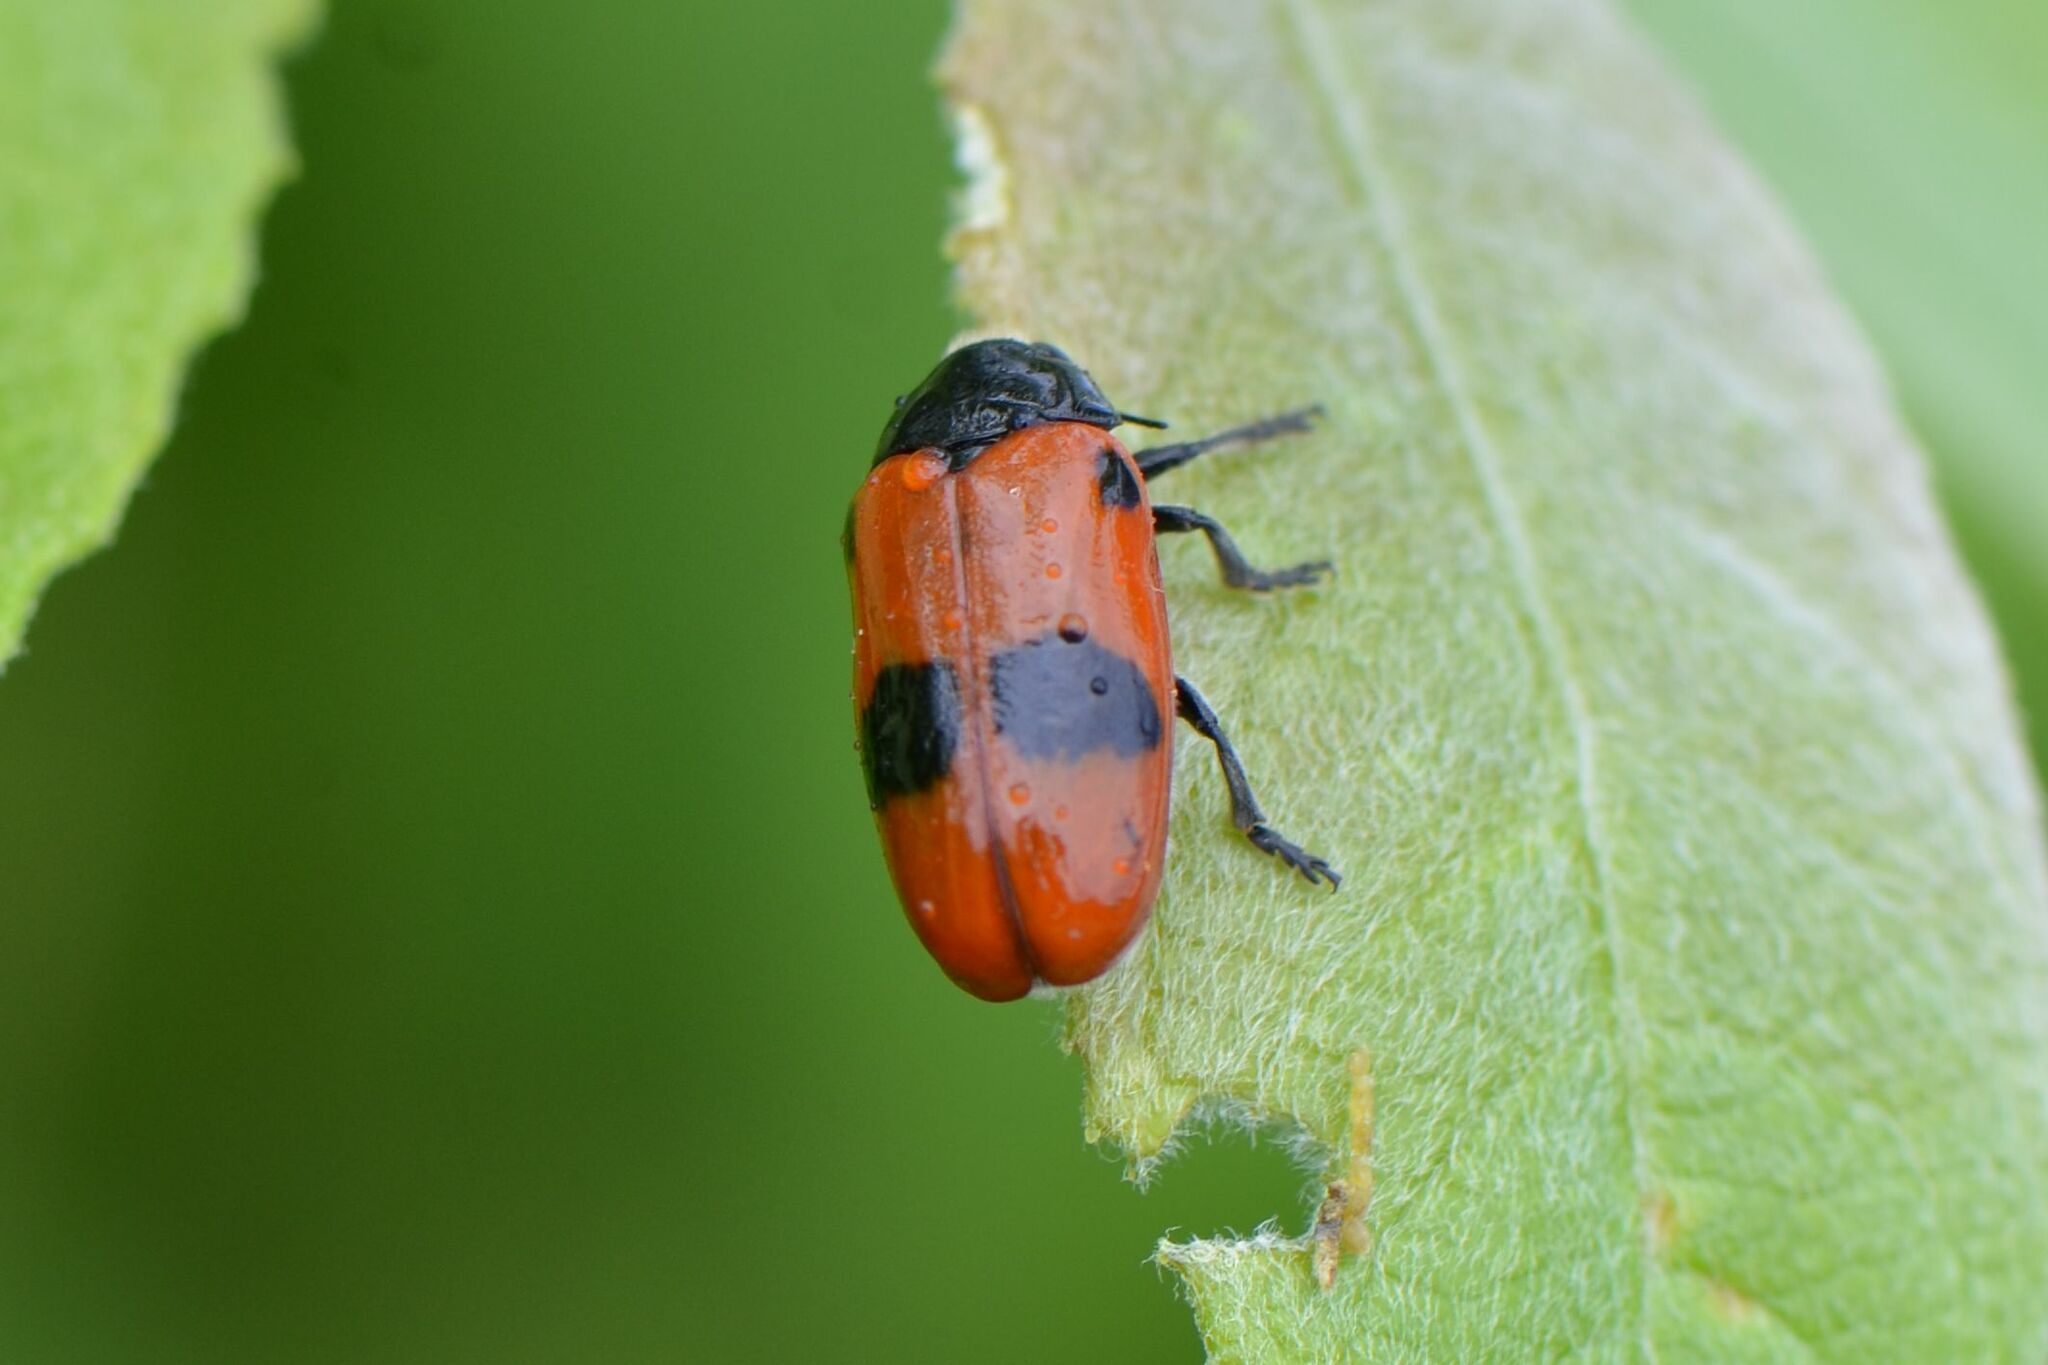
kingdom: Animalia
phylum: Arthropoda
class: Insecta
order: Coleoptera
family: Chrysomelidae
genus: Clytra
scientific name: Clytra laeviuscula
